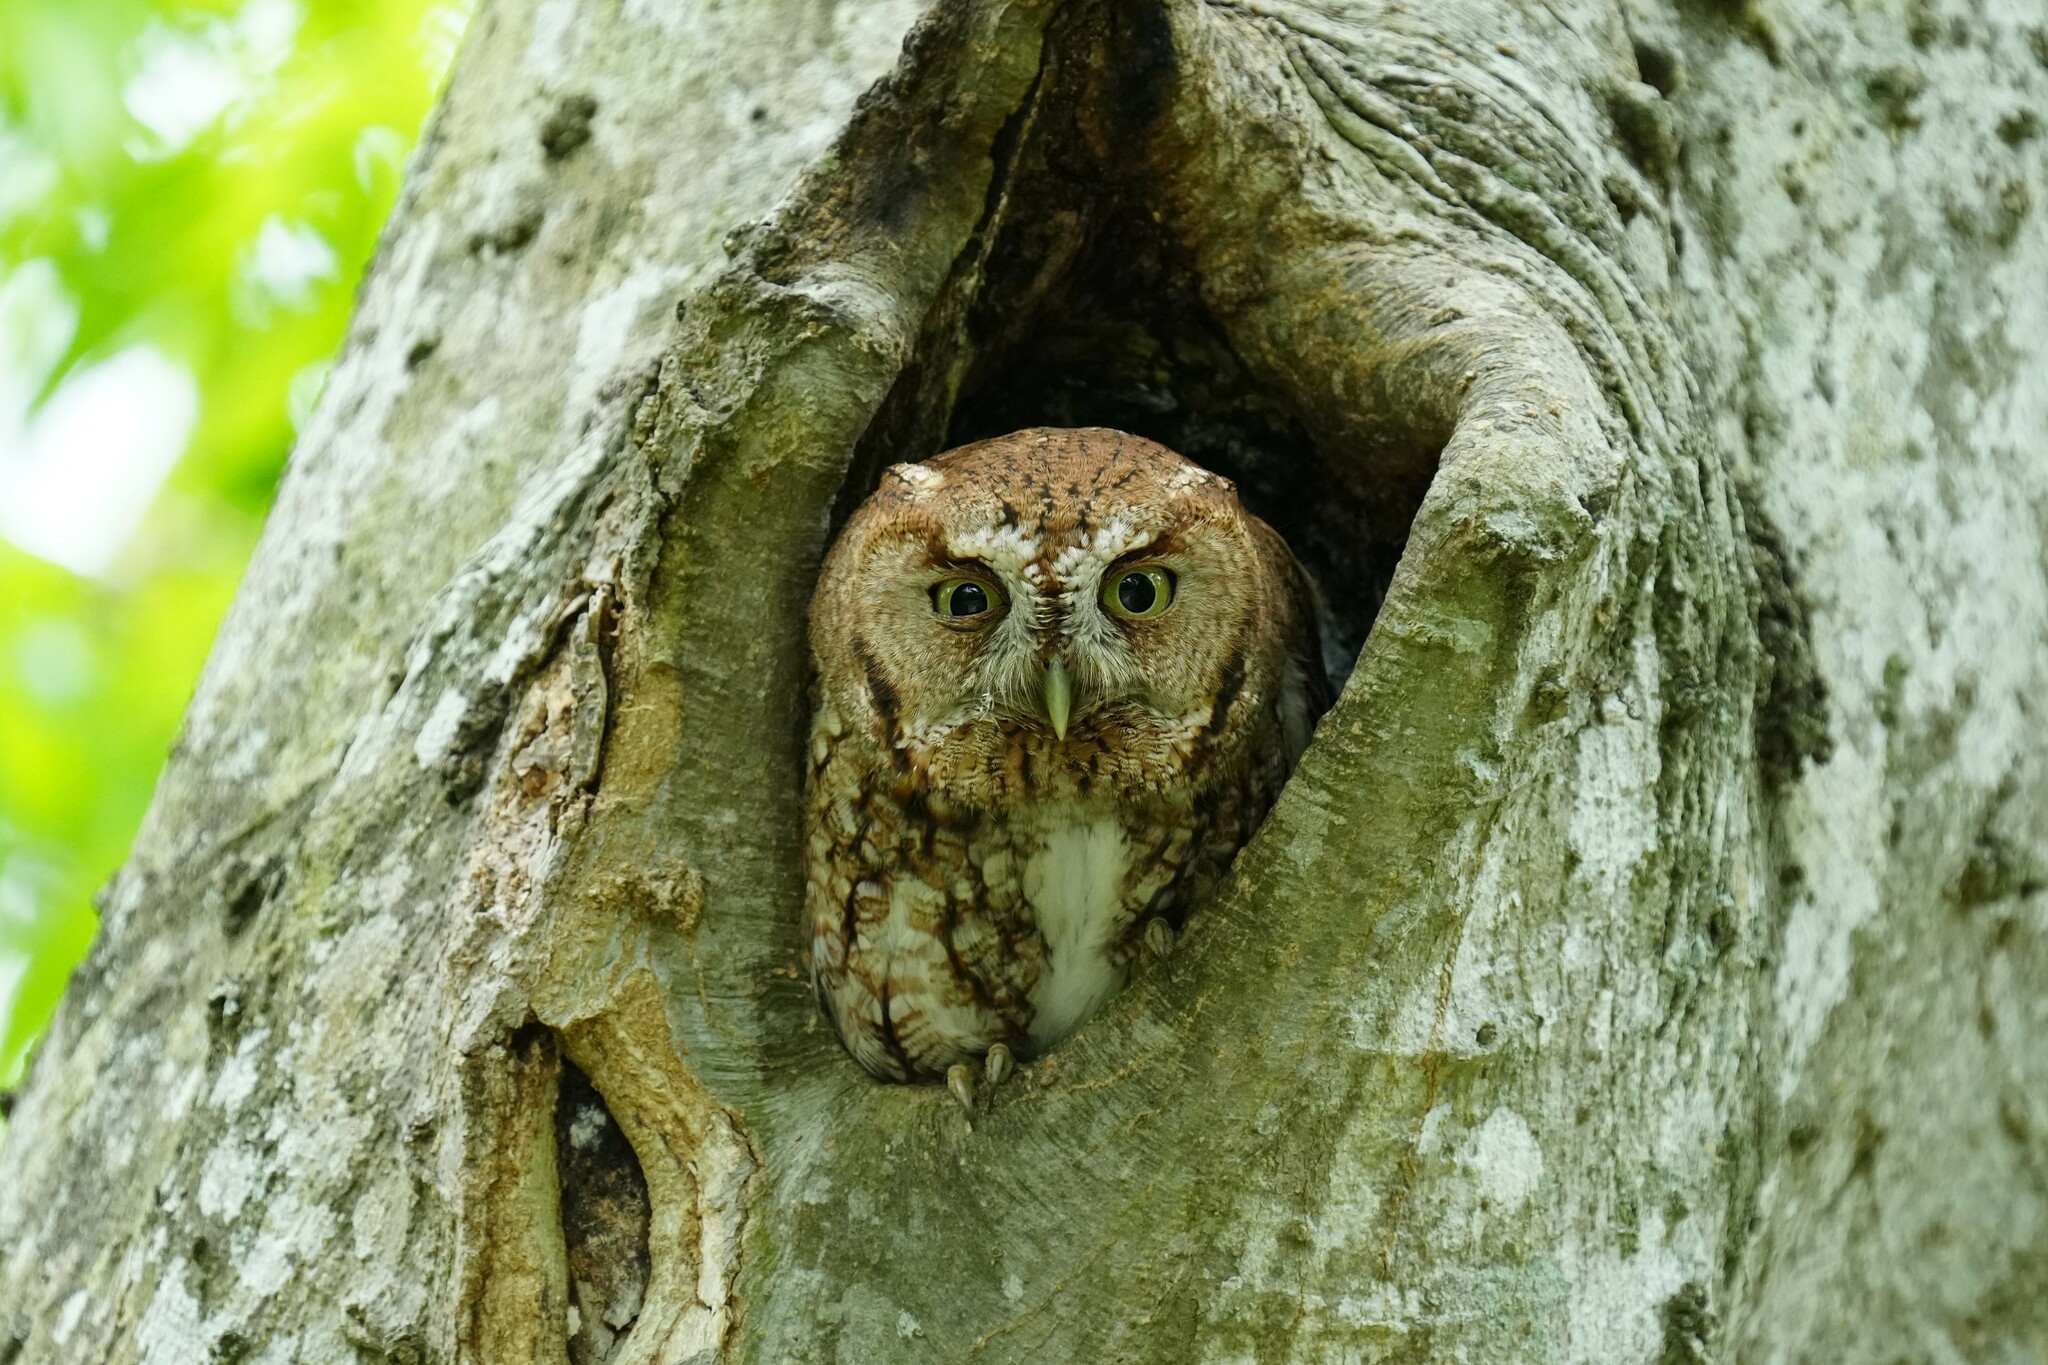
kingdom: Animalia
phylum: Chordata
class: Aves
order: Strigiformes
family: Strigidae
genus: Megascops
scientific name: Megascops asio
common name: Eastern screech-owl
